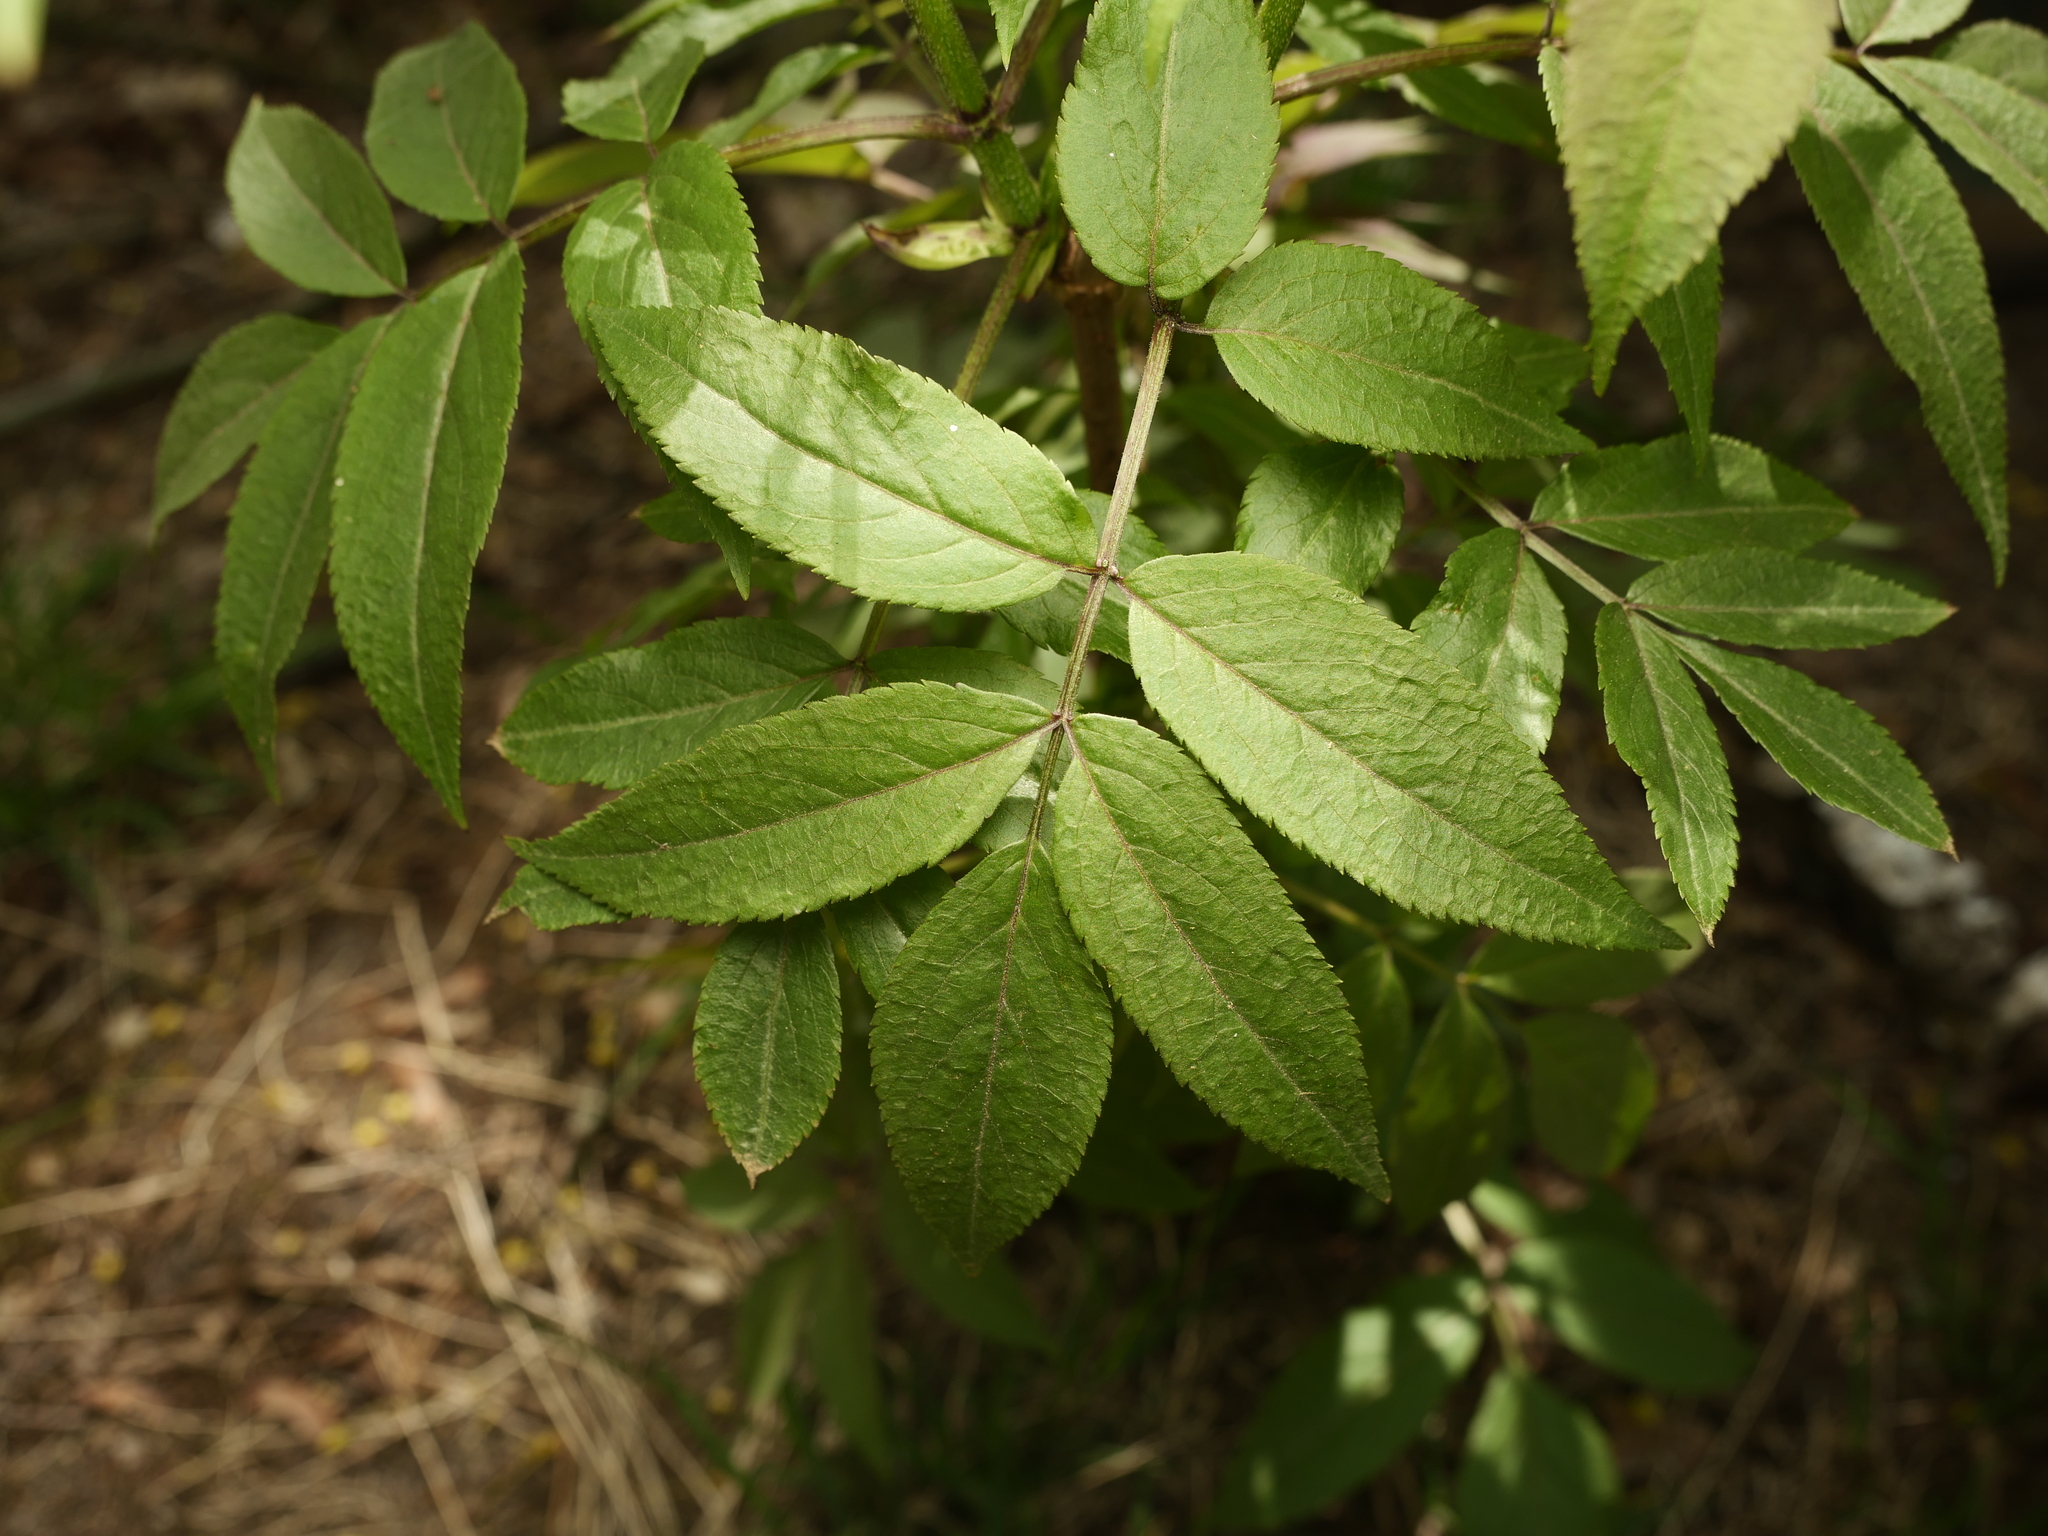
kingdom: Plantae
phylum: Tracheophyta
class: Magnoliopsida
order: Dipsacales
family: Viburnaceae
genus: Sambucus
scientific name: Sambucus racemosa
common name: Red-berried elder
